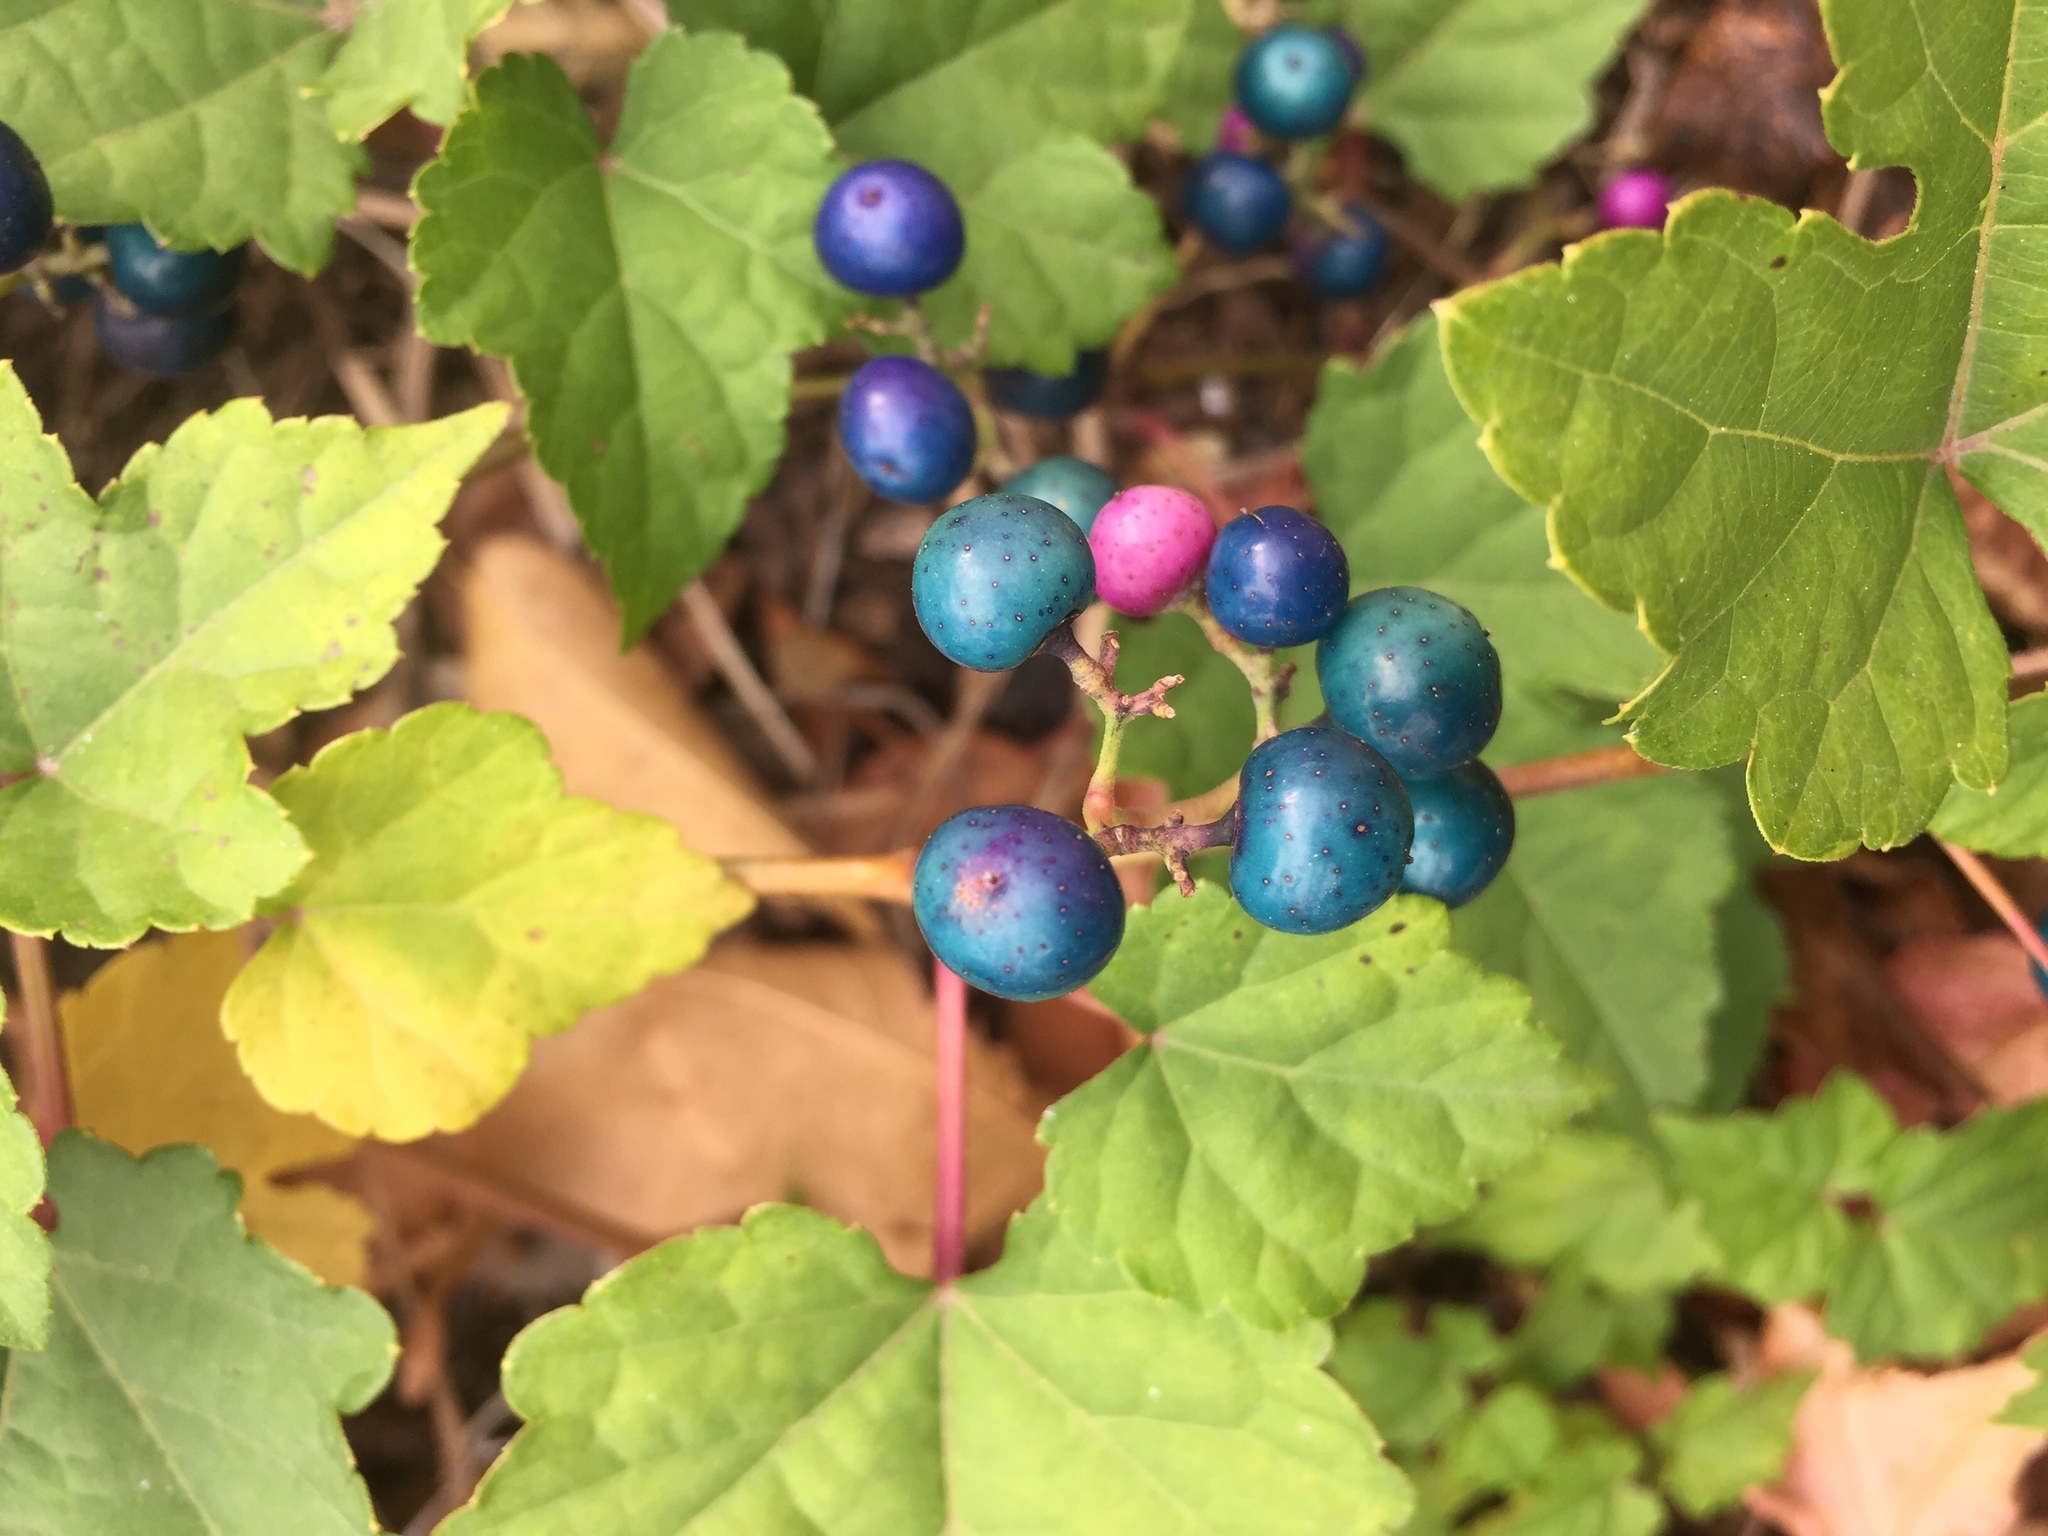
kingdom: Plantae
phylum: Tracheophyta
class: Magnoliopsida
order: Vitales
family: Vitaceae
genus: Ampelopsis
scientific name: Ampelopsis glandulosa
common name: Amur peppervine
